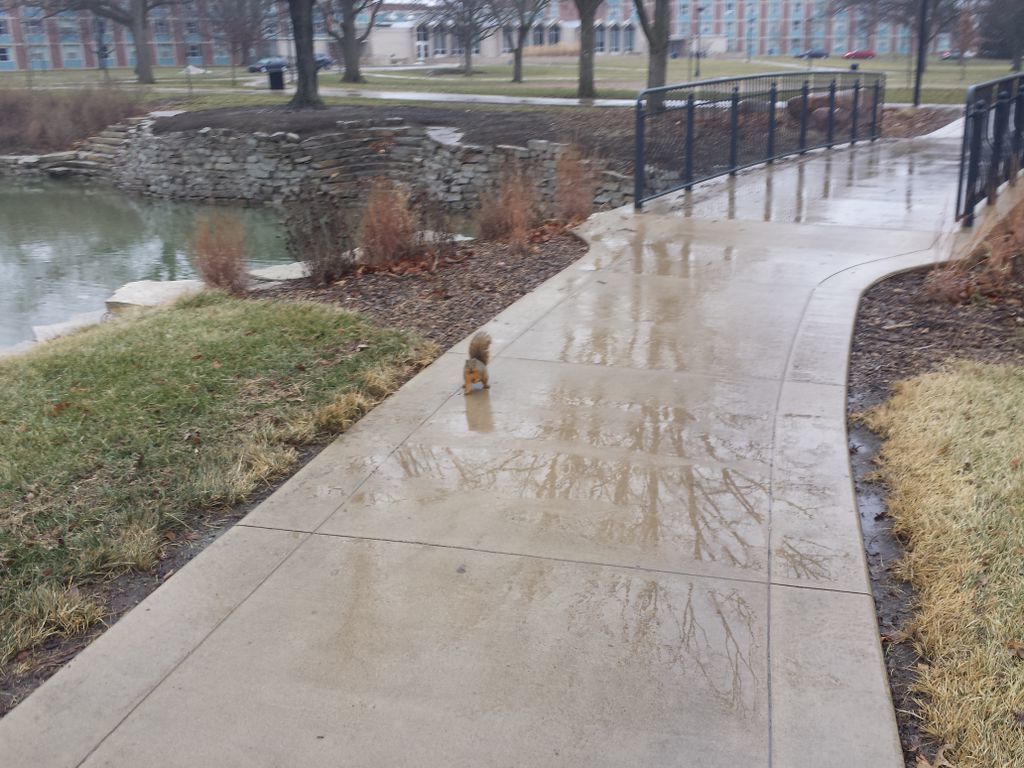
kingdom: Animalia
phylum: Chordata
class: Mammalia
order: Rodentia
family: Sciuridae
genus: Sciurus
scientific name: Sciurus niger
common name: Fox squirrel
